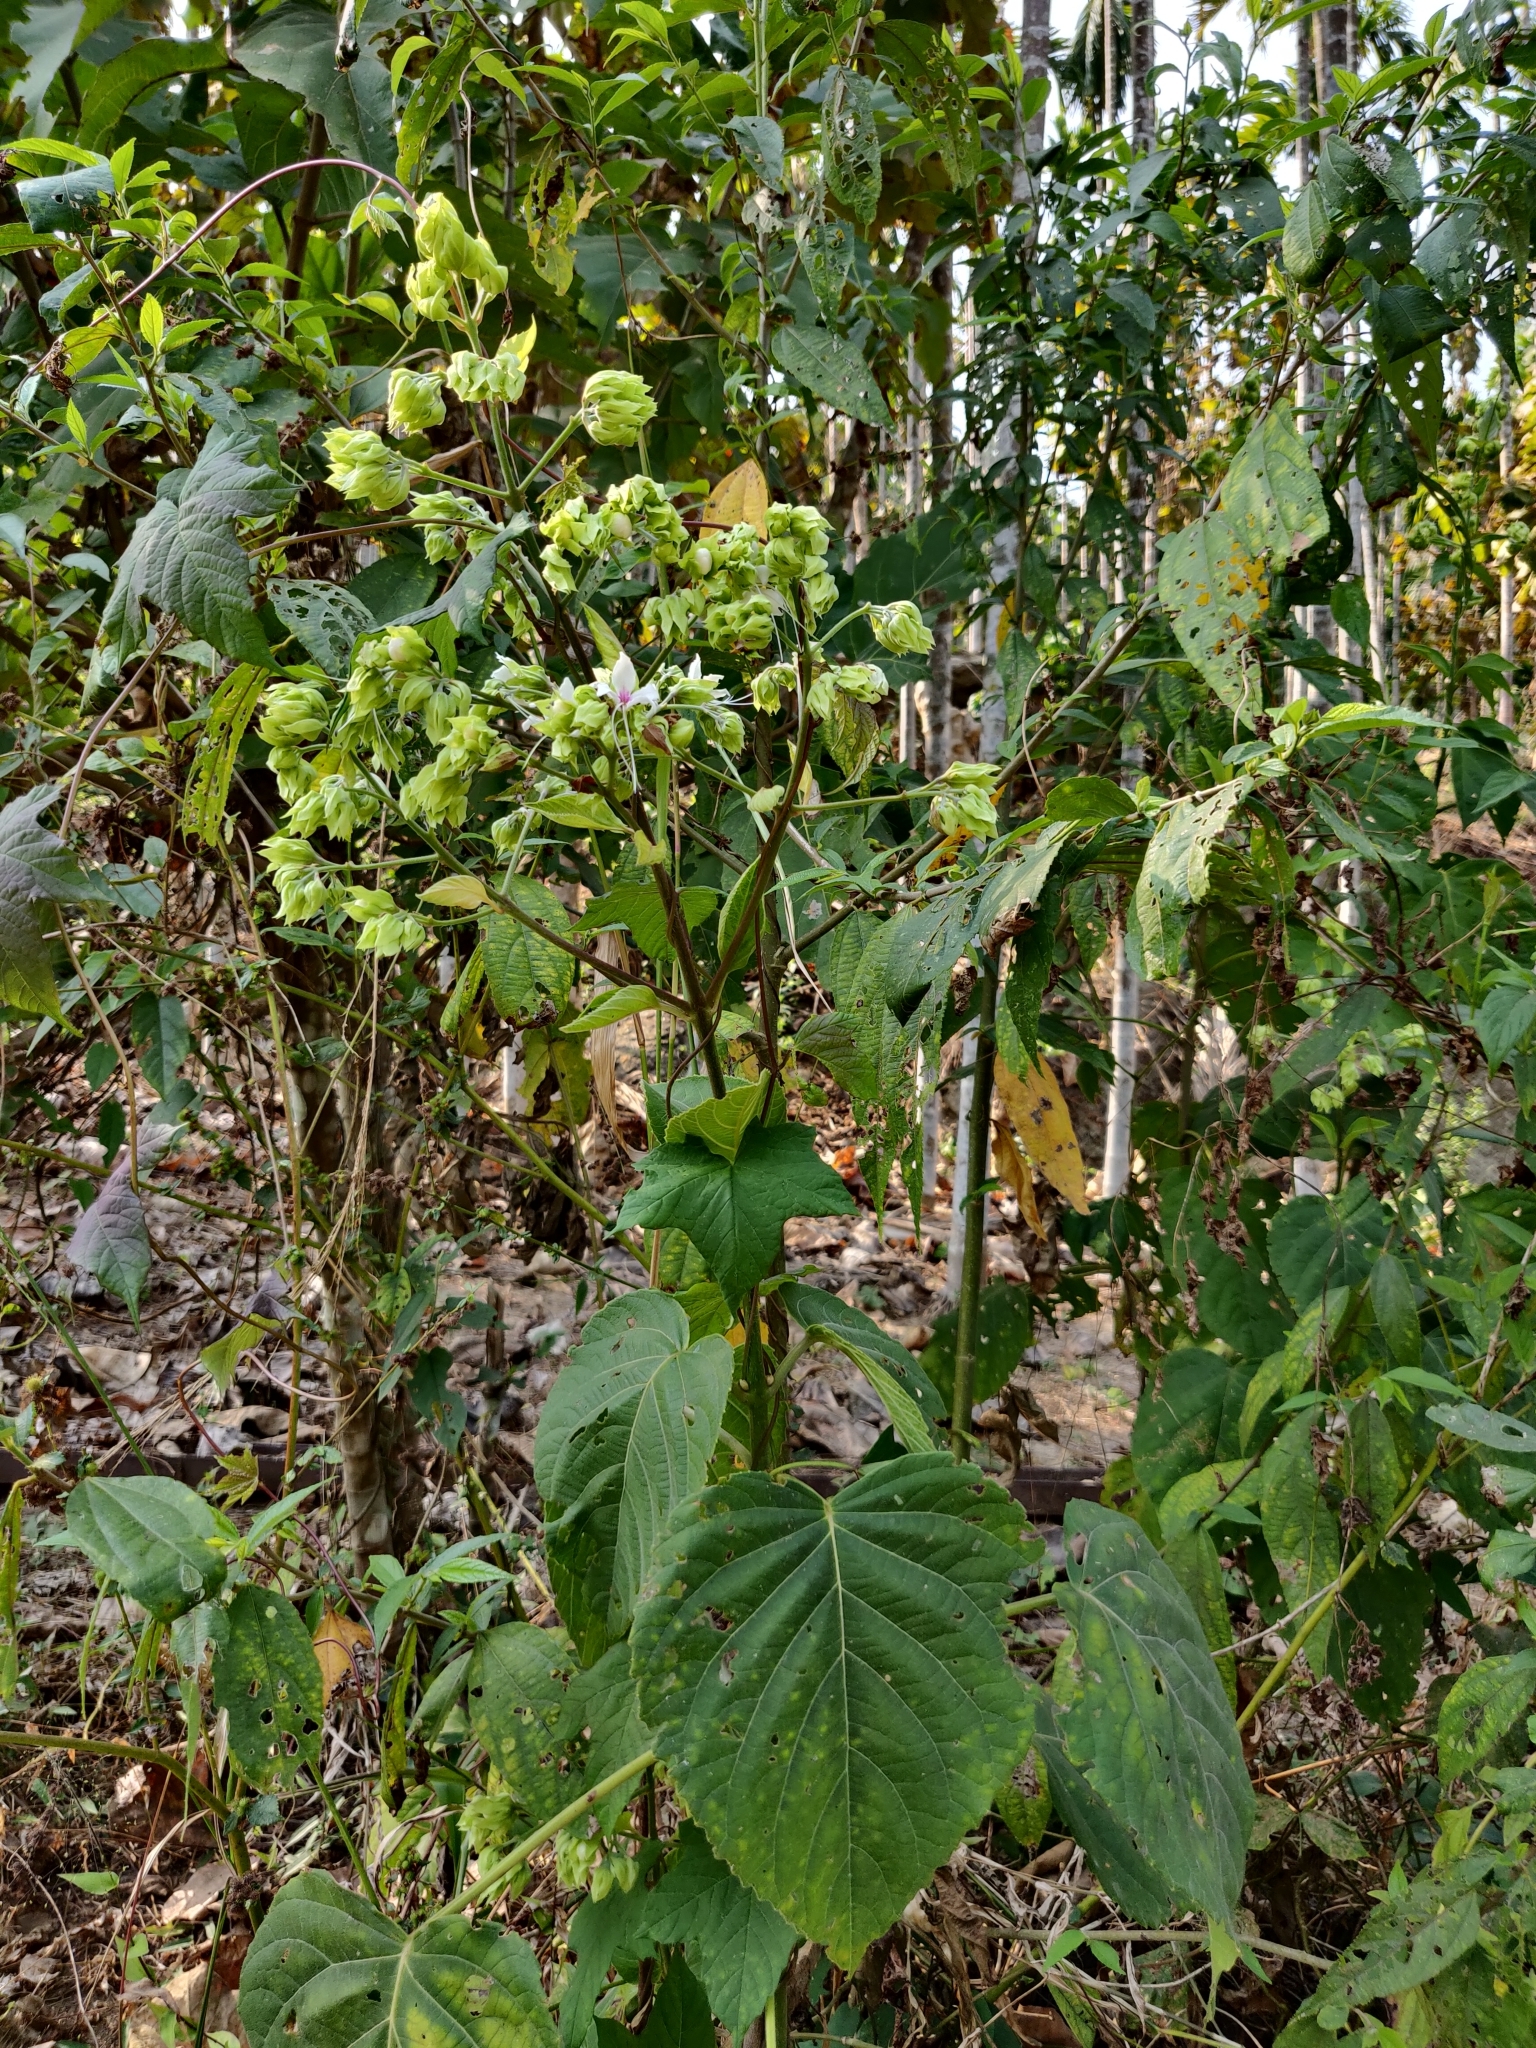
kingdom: Plantae
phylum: Tracheophyta
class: Magnoliopsida
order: Lamiales
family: Lamiaceae
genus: Clerodendrum
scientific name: Clerodendrum infortunatum
